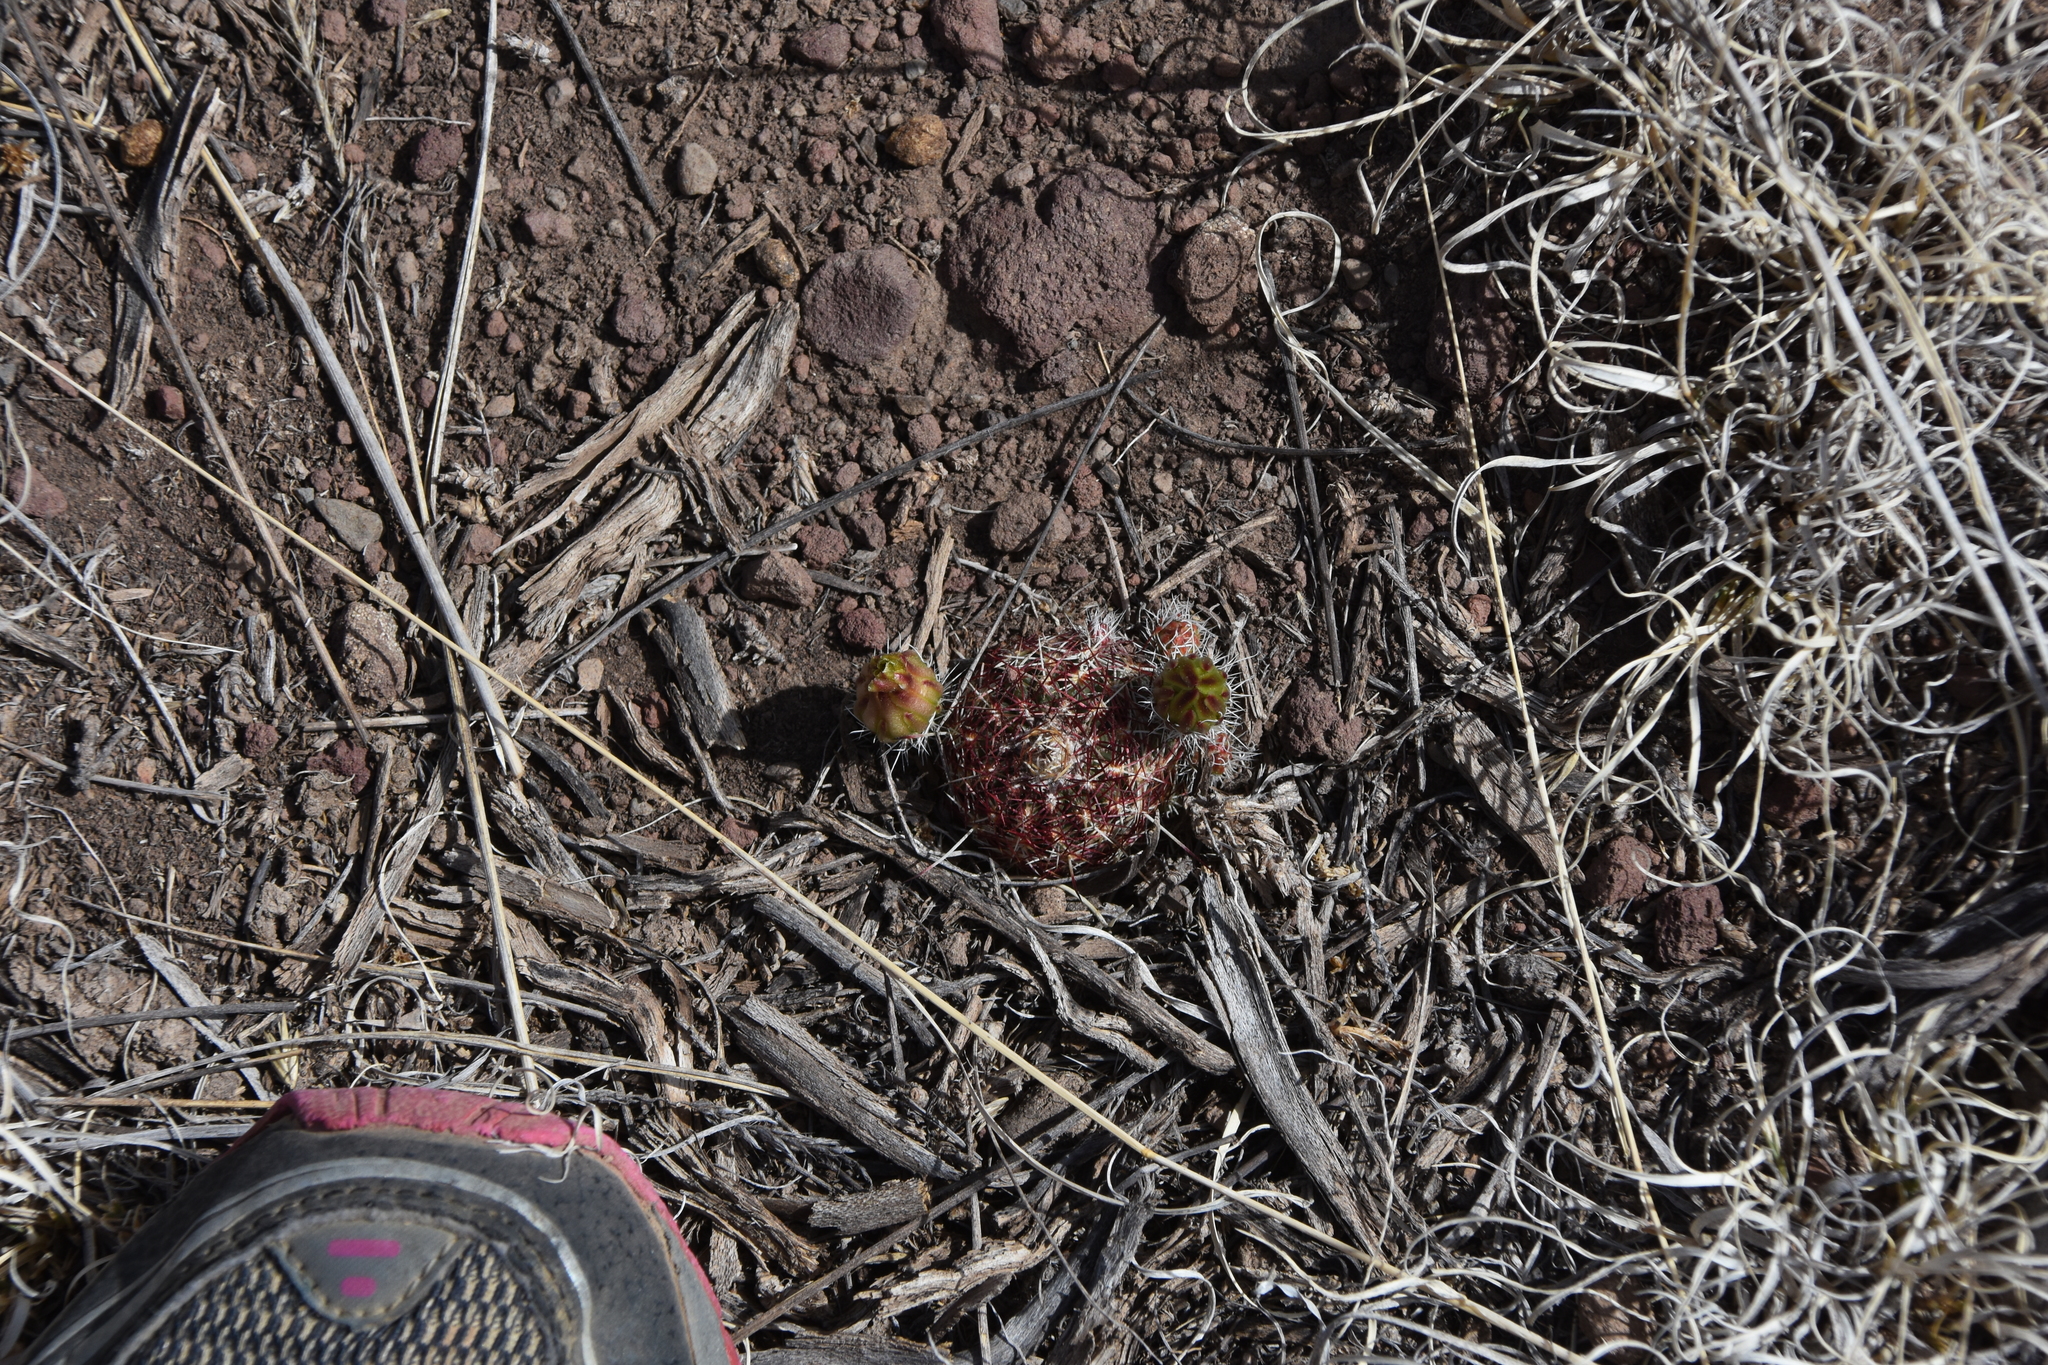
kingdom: Plantae
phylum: Tracheophyta
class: Magnoliopsida
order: Caryophyllales
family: Cactaceae
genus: Echinocereus
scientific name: Echinocereus viridiflorus
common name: Nylon hedgehog cactus
